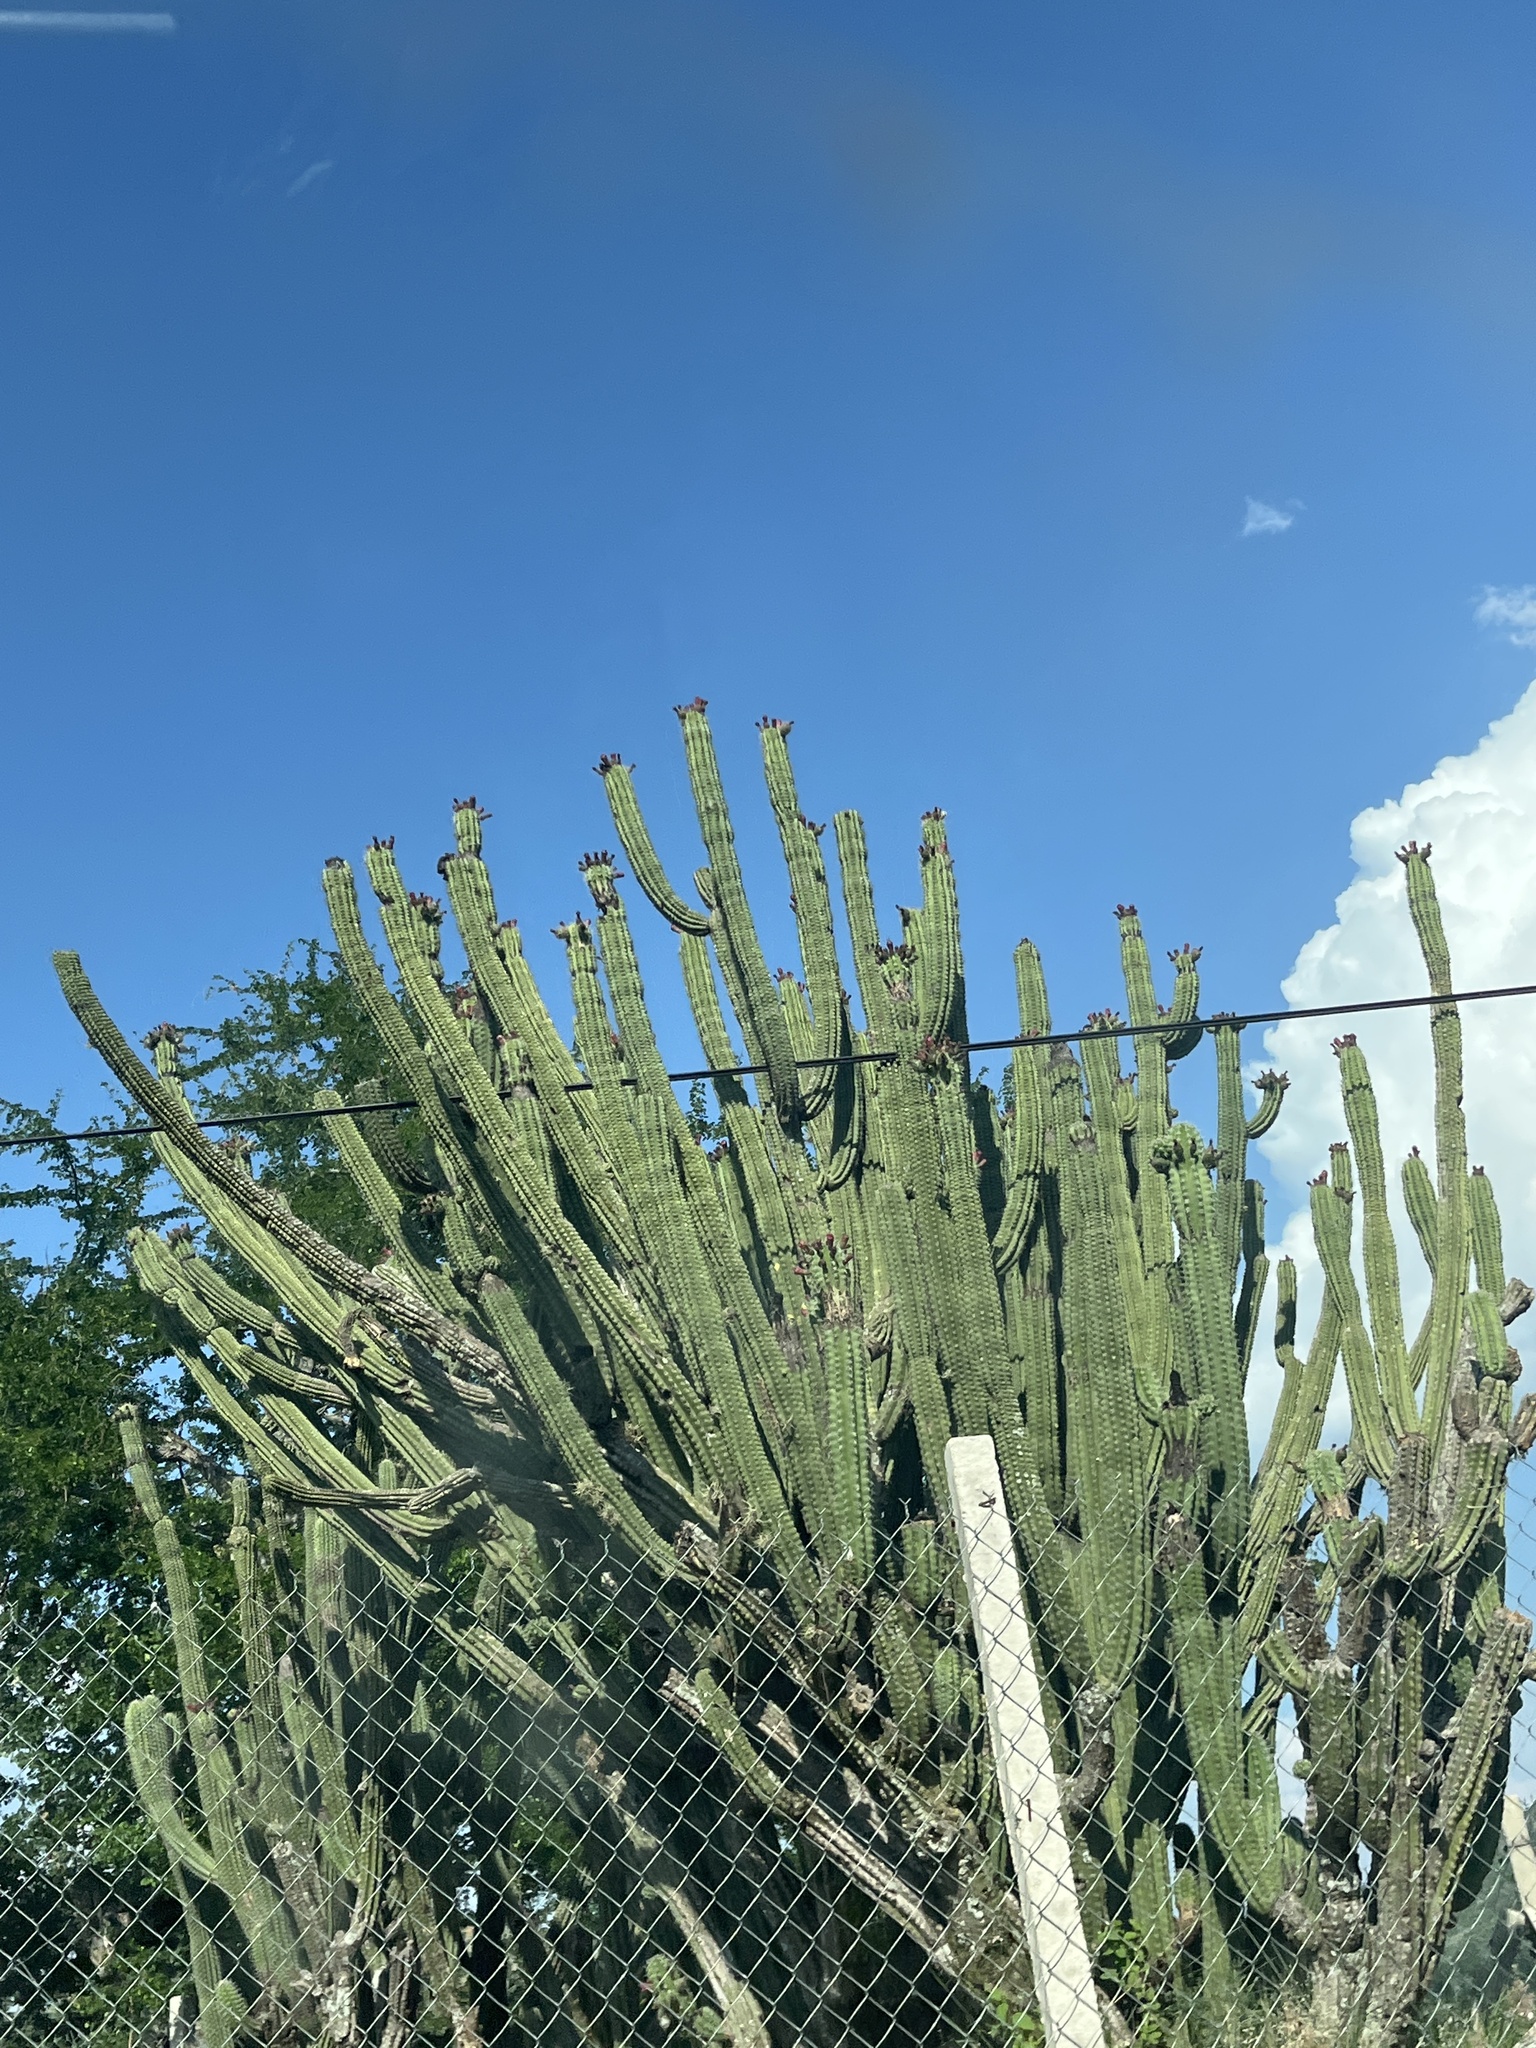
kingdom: Plantae
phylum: Tracheophyta
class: Magnoliopsida
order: Caryophyllales
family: Cactaceae
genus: Stenocereus
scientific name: Stenocereus pruinosus
